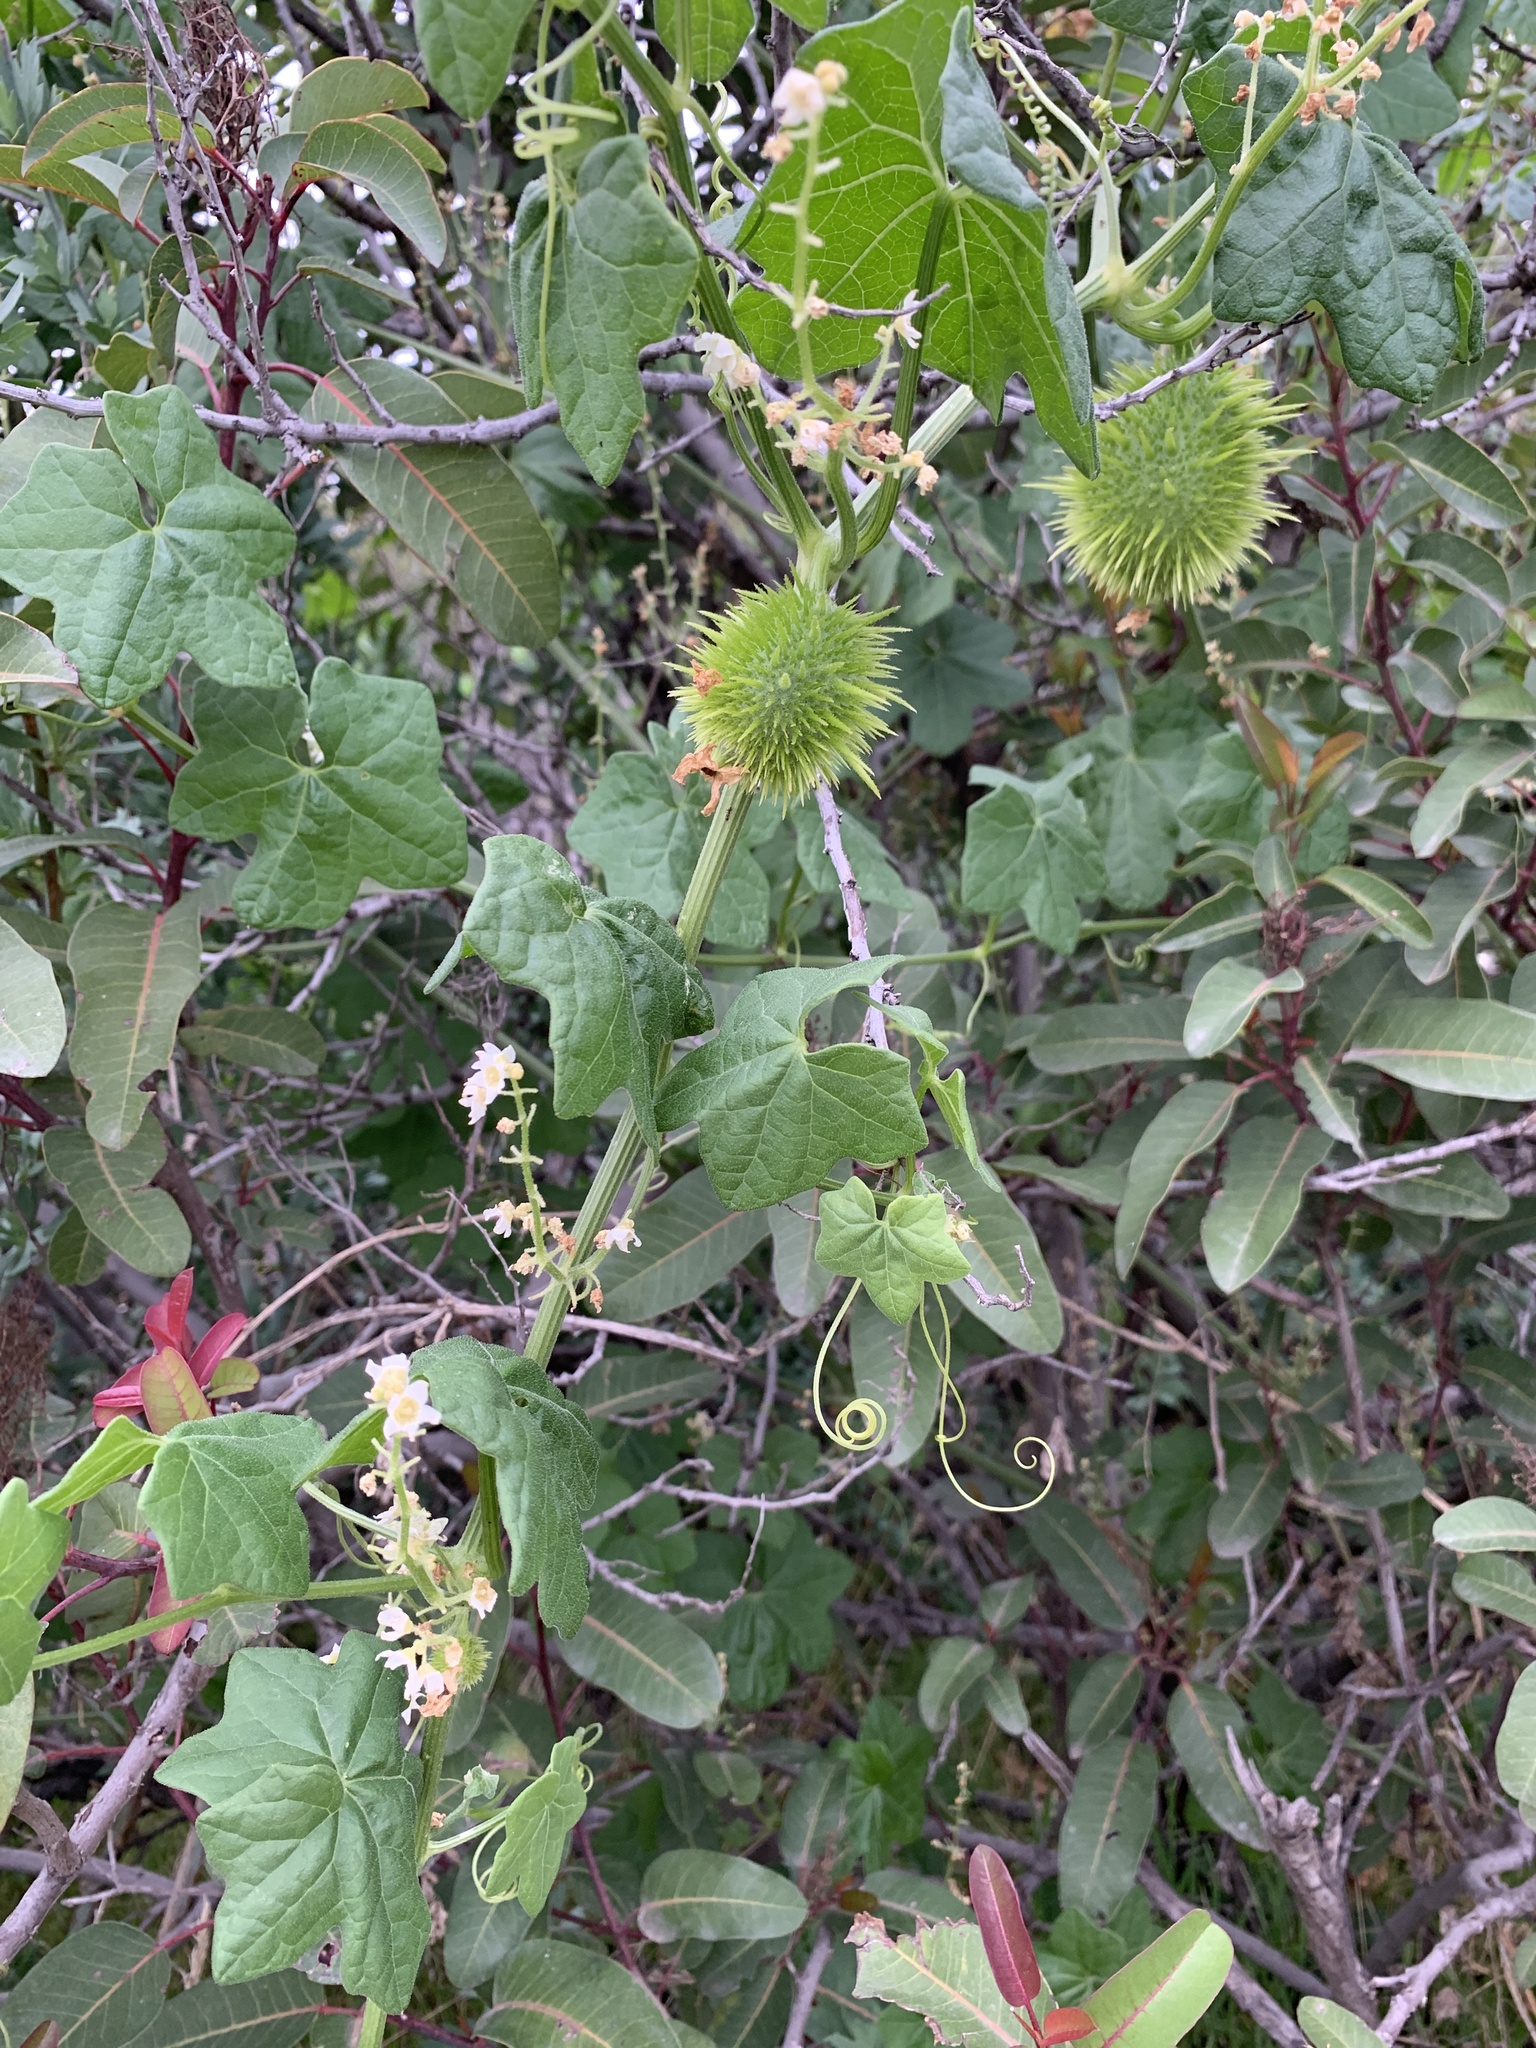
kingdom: Plantae
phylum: Tracheophyta
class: Magnoliopsida
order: Cucurbitales
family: Cucurbitaceae
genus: Marah
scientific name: Marah macrocarpa
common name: Cucamonga manroot
